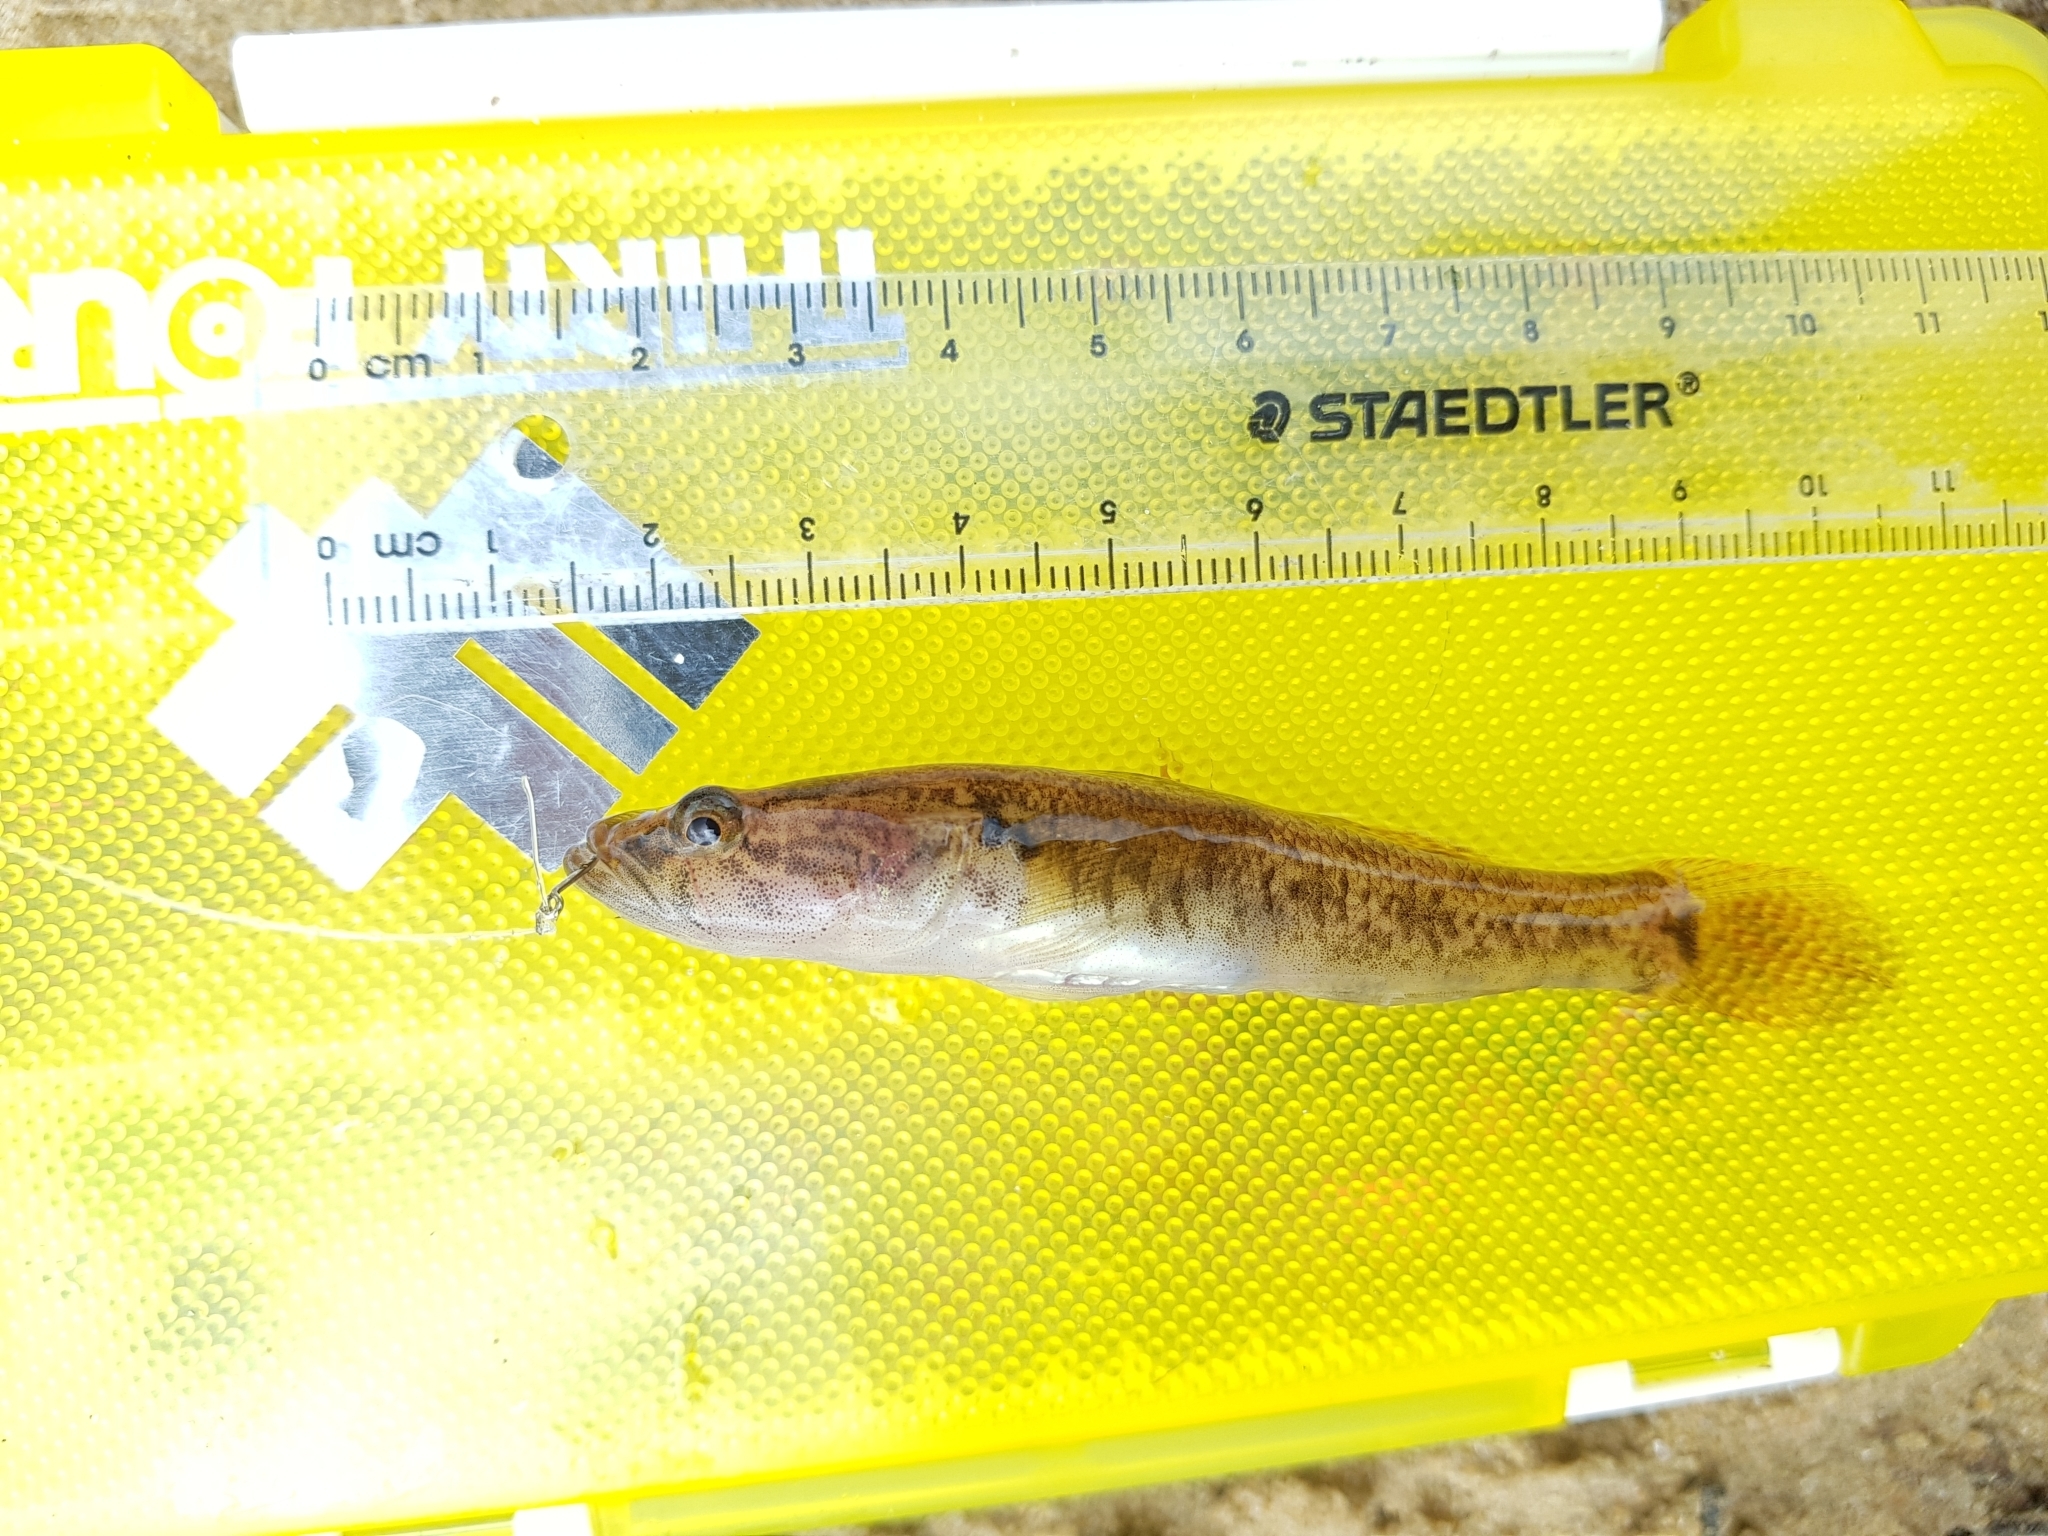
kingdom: Animalia
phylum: Chordata
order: Perciformes
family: Eleotridae
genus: Philypnodon
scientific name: Philypnodon grandiceps
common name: Flathead gudgeon
